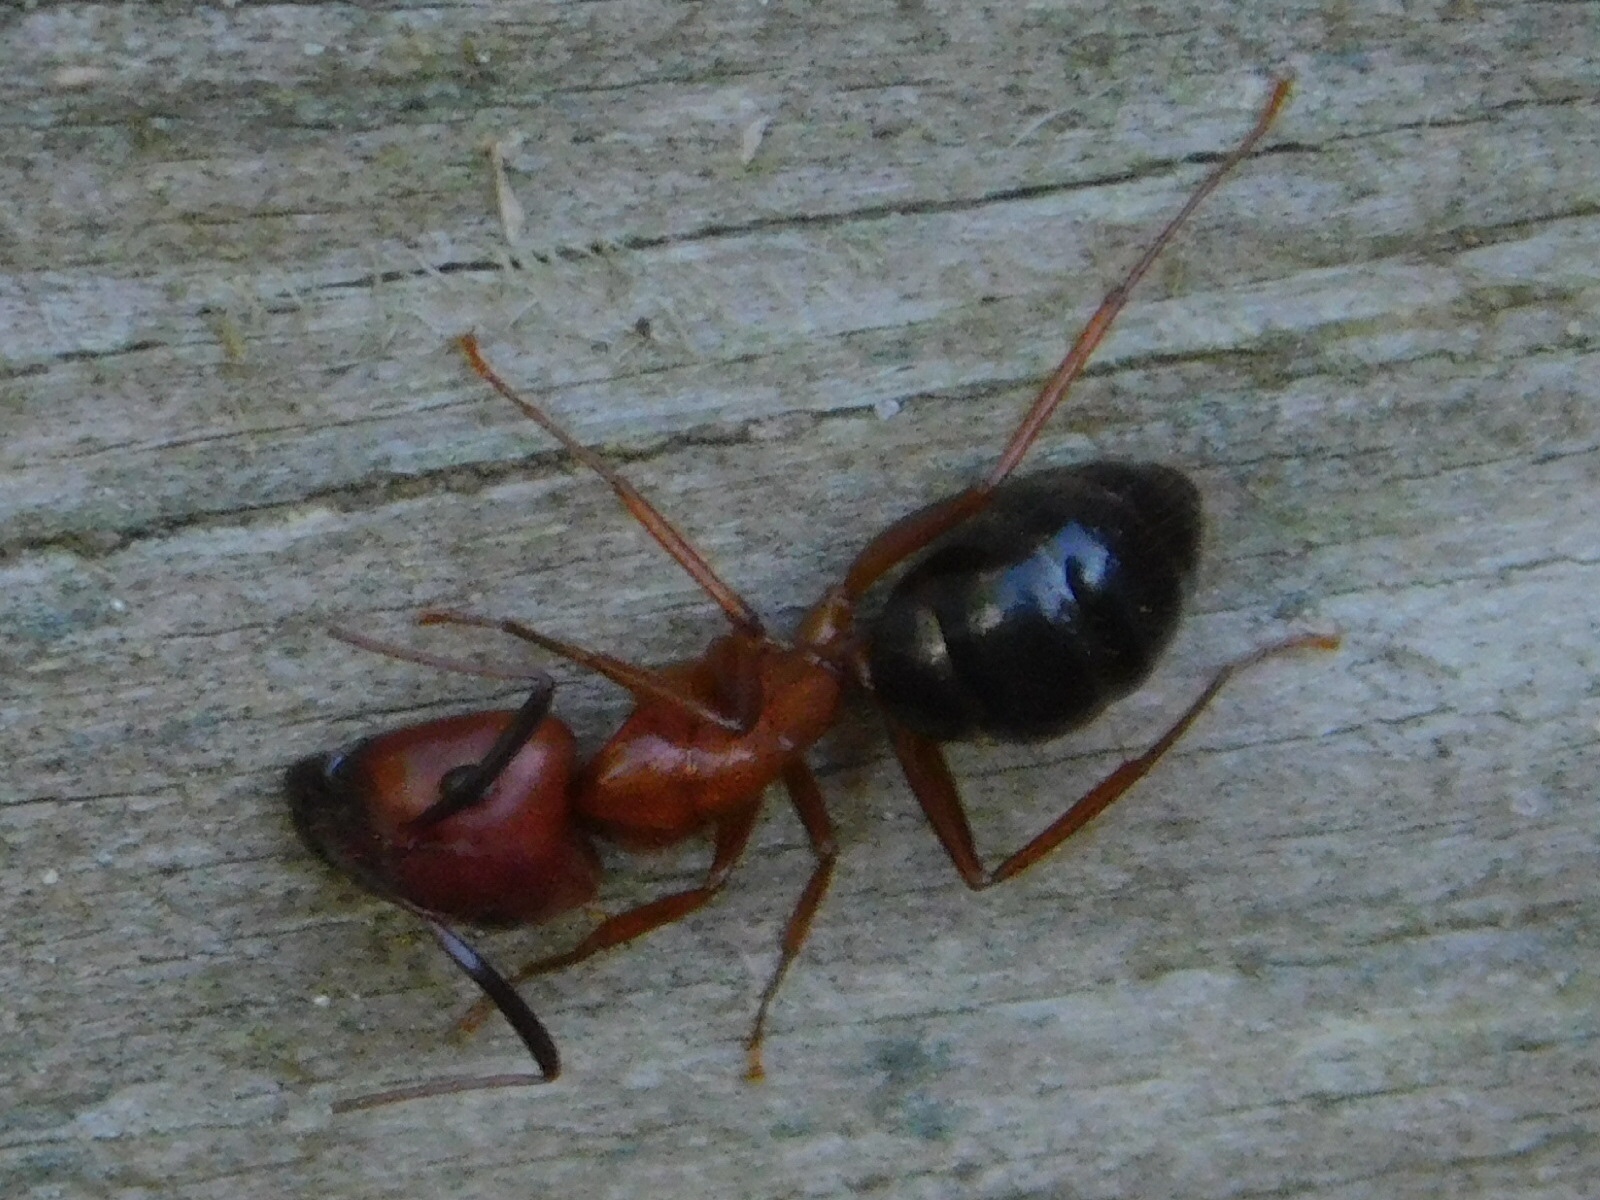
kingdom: Animalia
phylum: Arthropoda
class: Insecta
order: Hymenoptera
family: Formicidae
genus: Camponotus
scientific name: Camponotus floridanus
